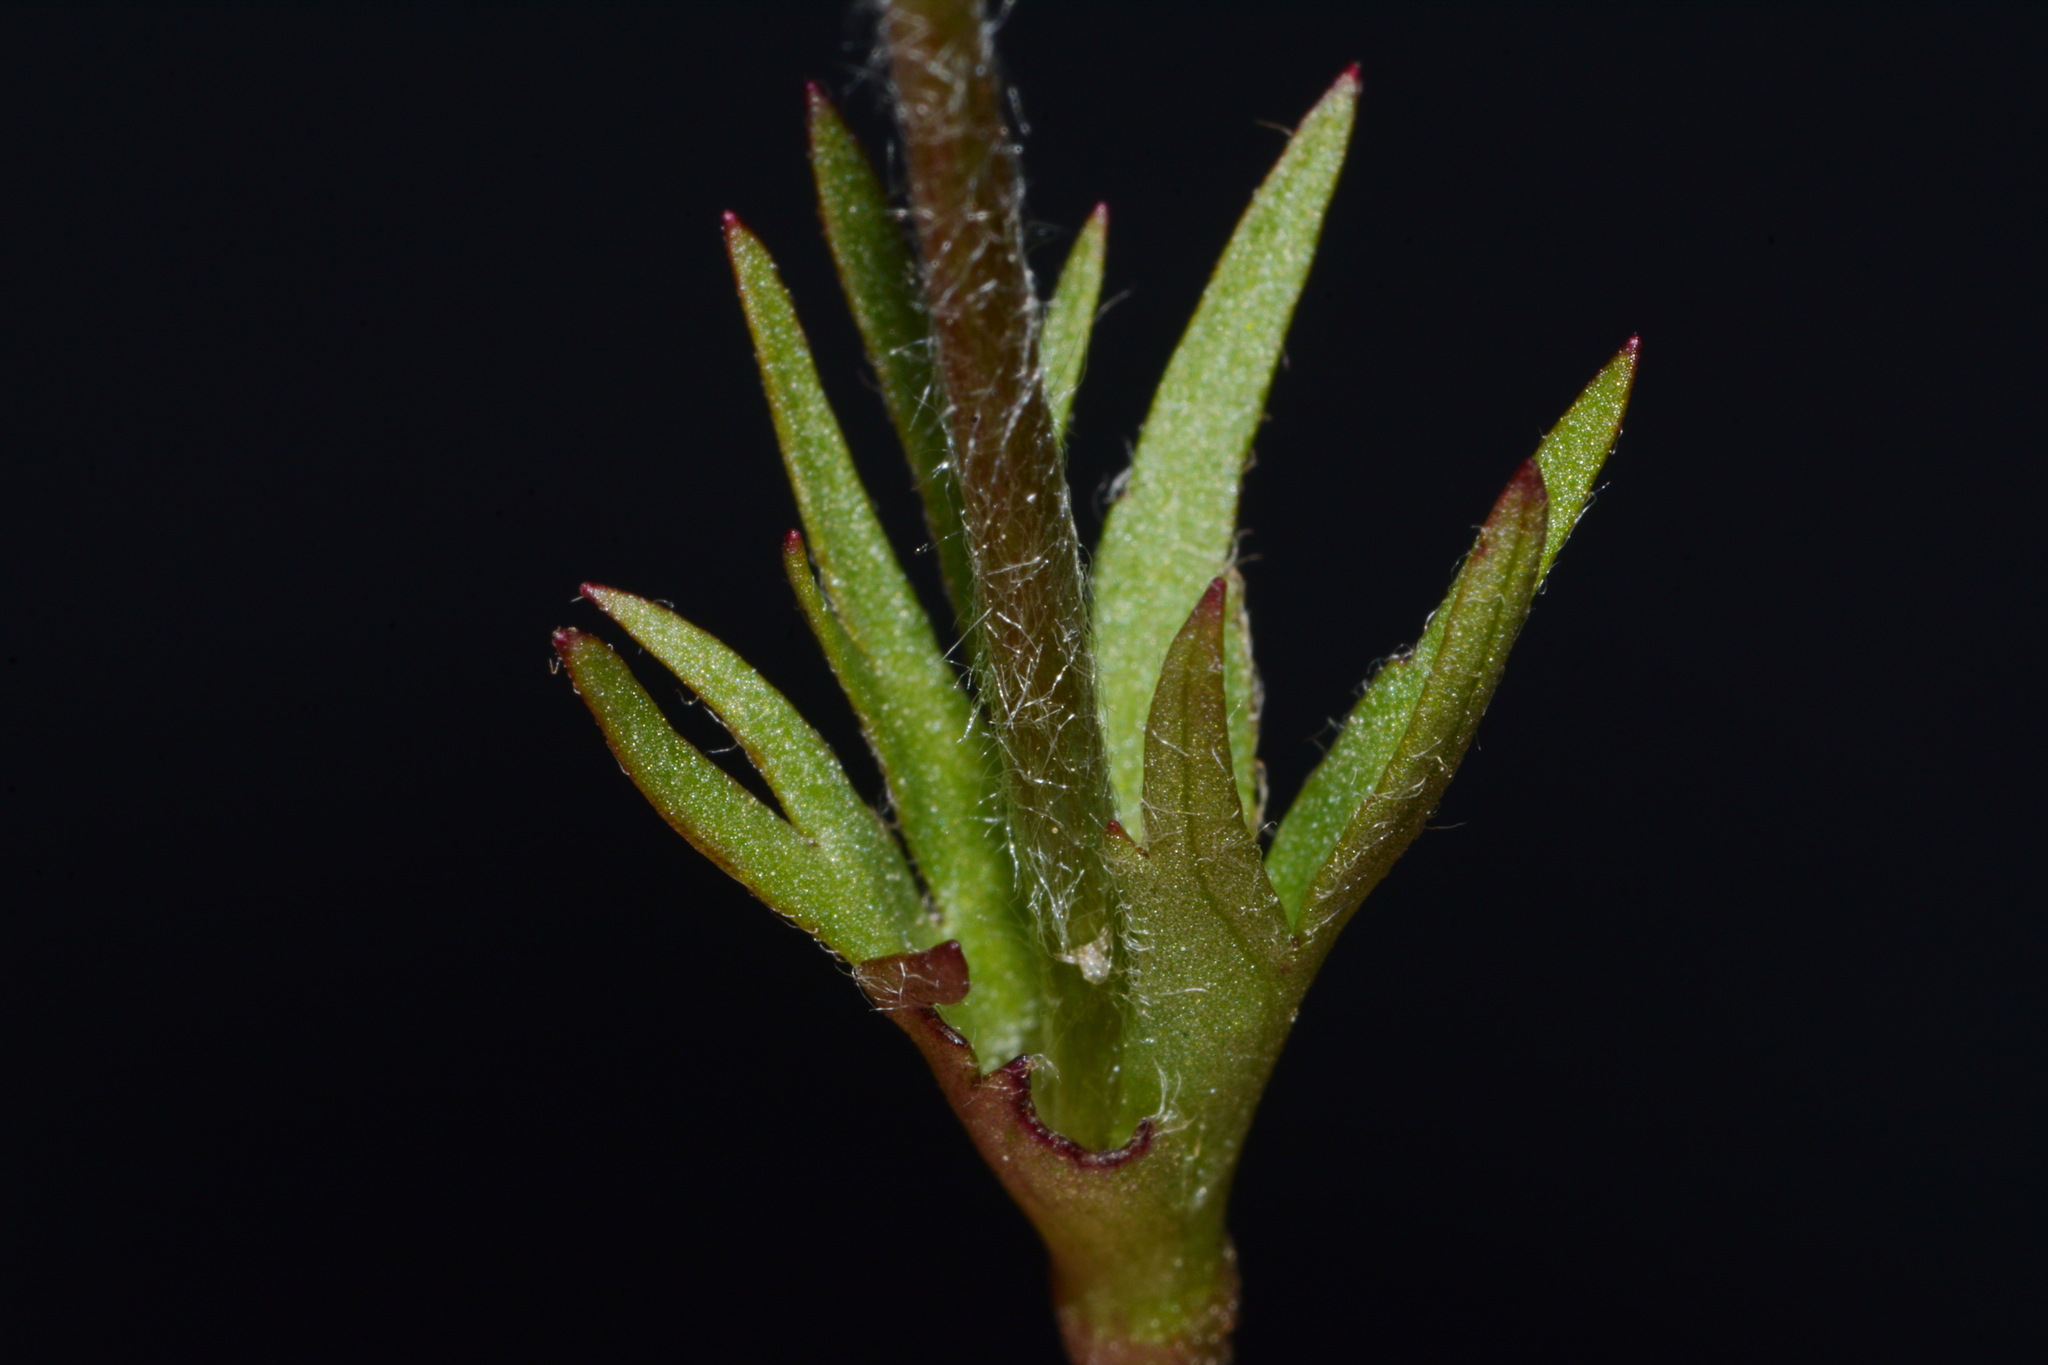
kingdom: Plantae
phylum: Tracheophyta
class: Magnoliopsida
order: Ranunculales
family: Ranunculaceae
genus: Anemone
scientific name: Anemone caroliniana
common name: Carolina anemone
